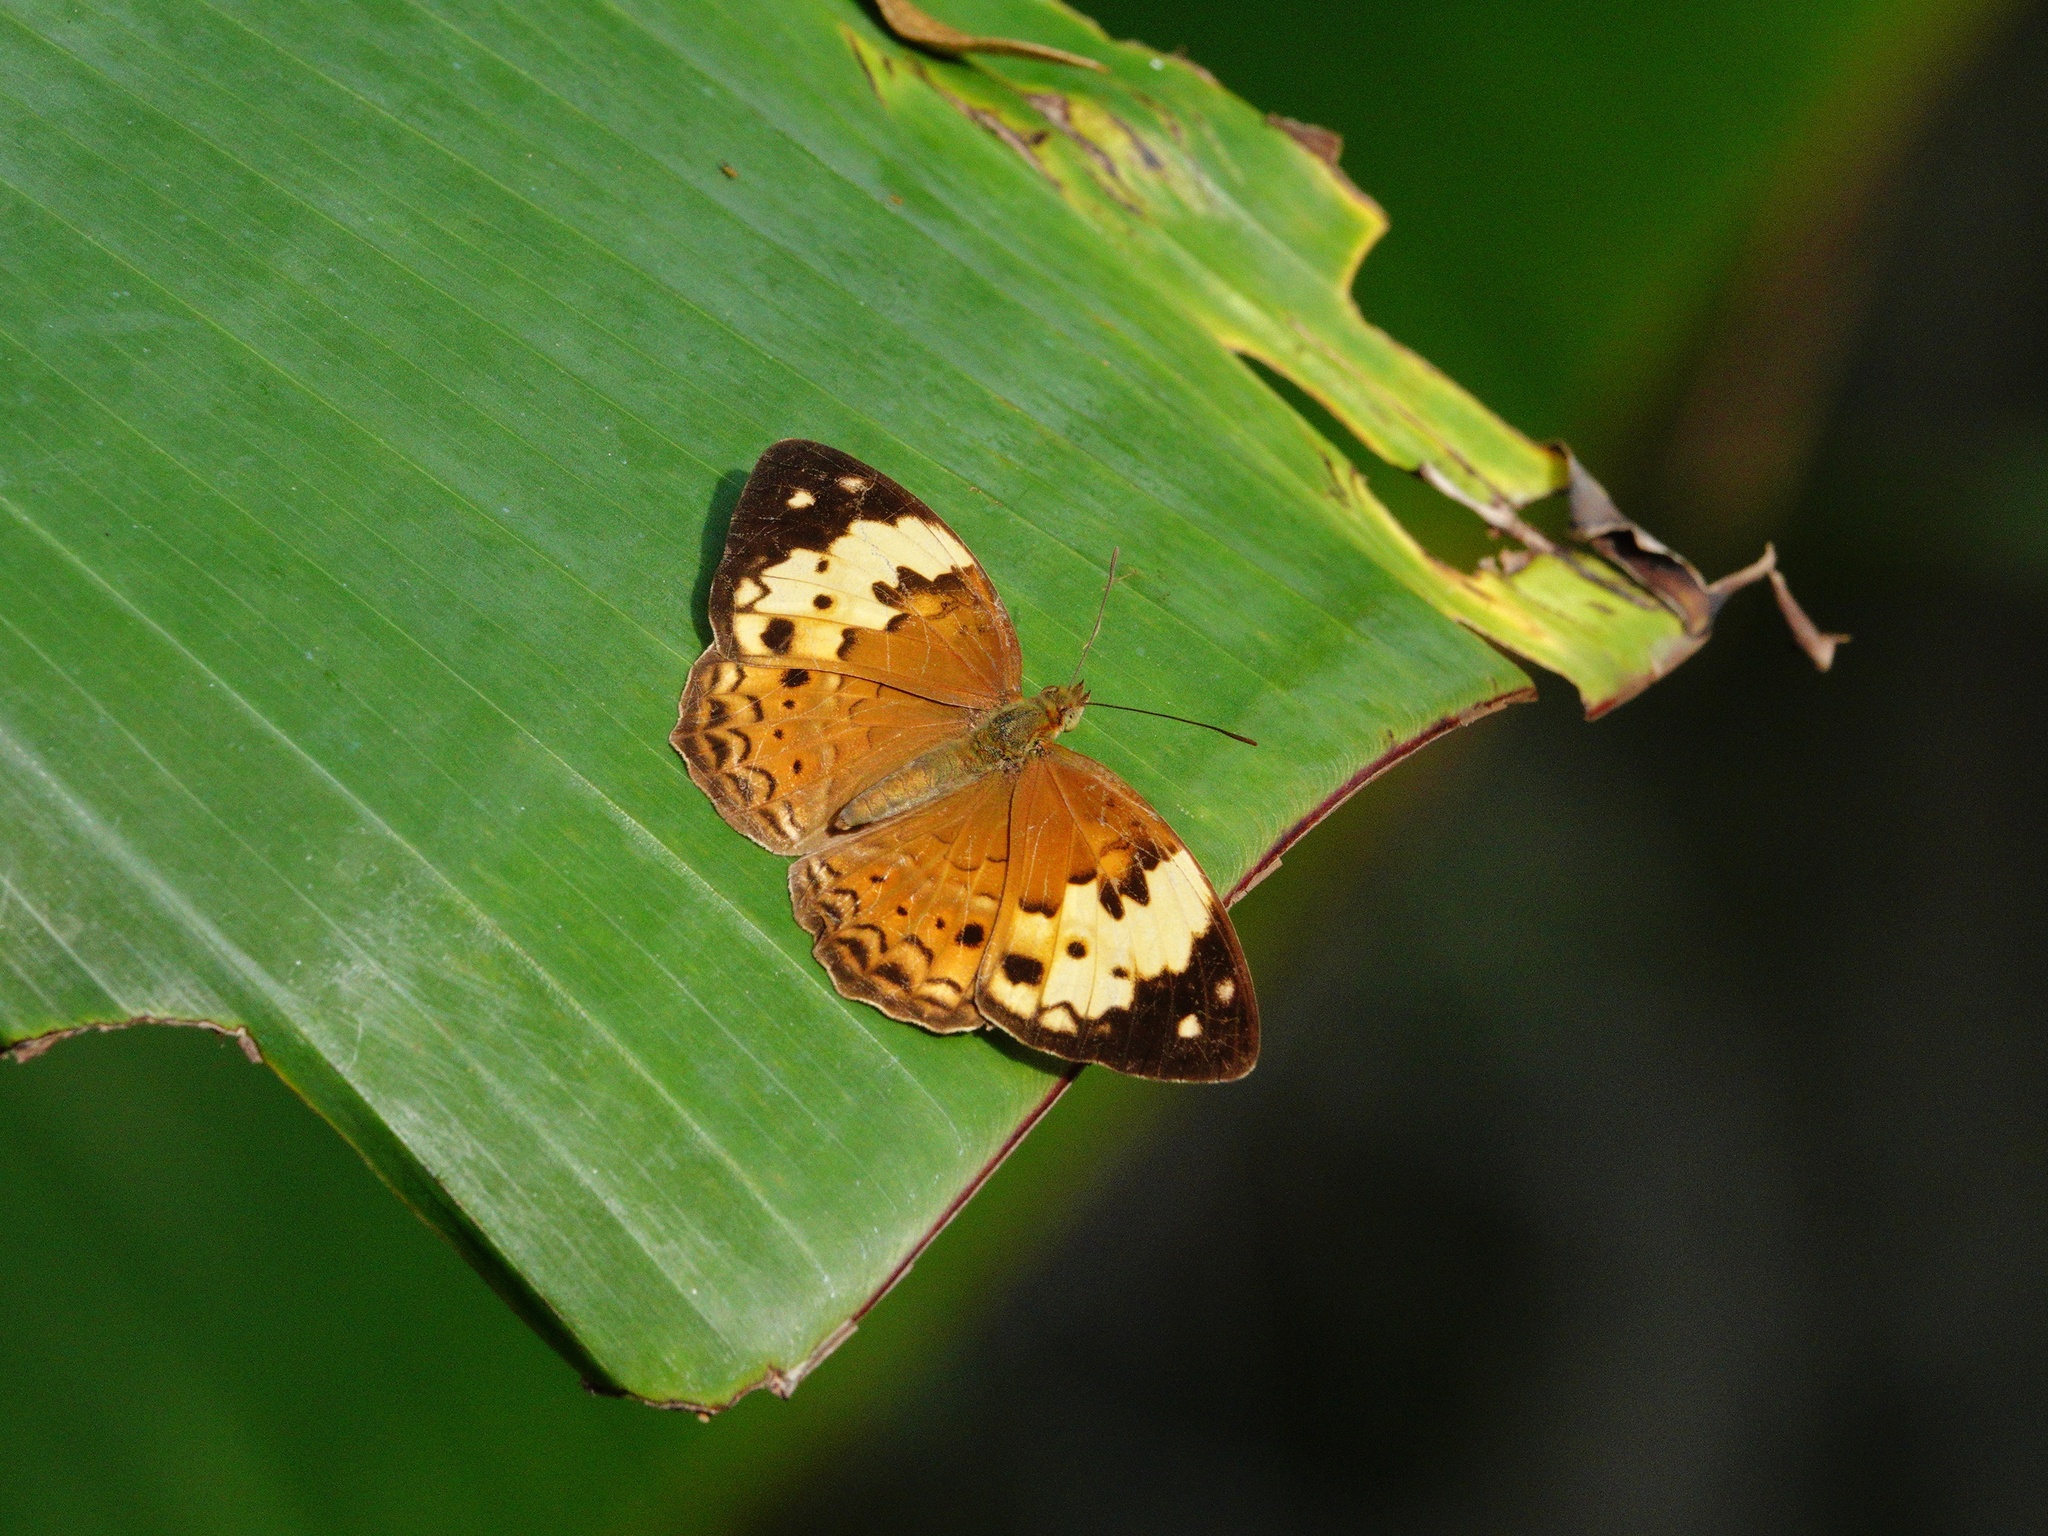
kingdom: Animalia
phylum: Arthropoda
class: Insecta
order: Lepidoptera
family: Nymphalidae
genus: Cupha
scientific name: Cupha erymanthis
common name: Rustic
